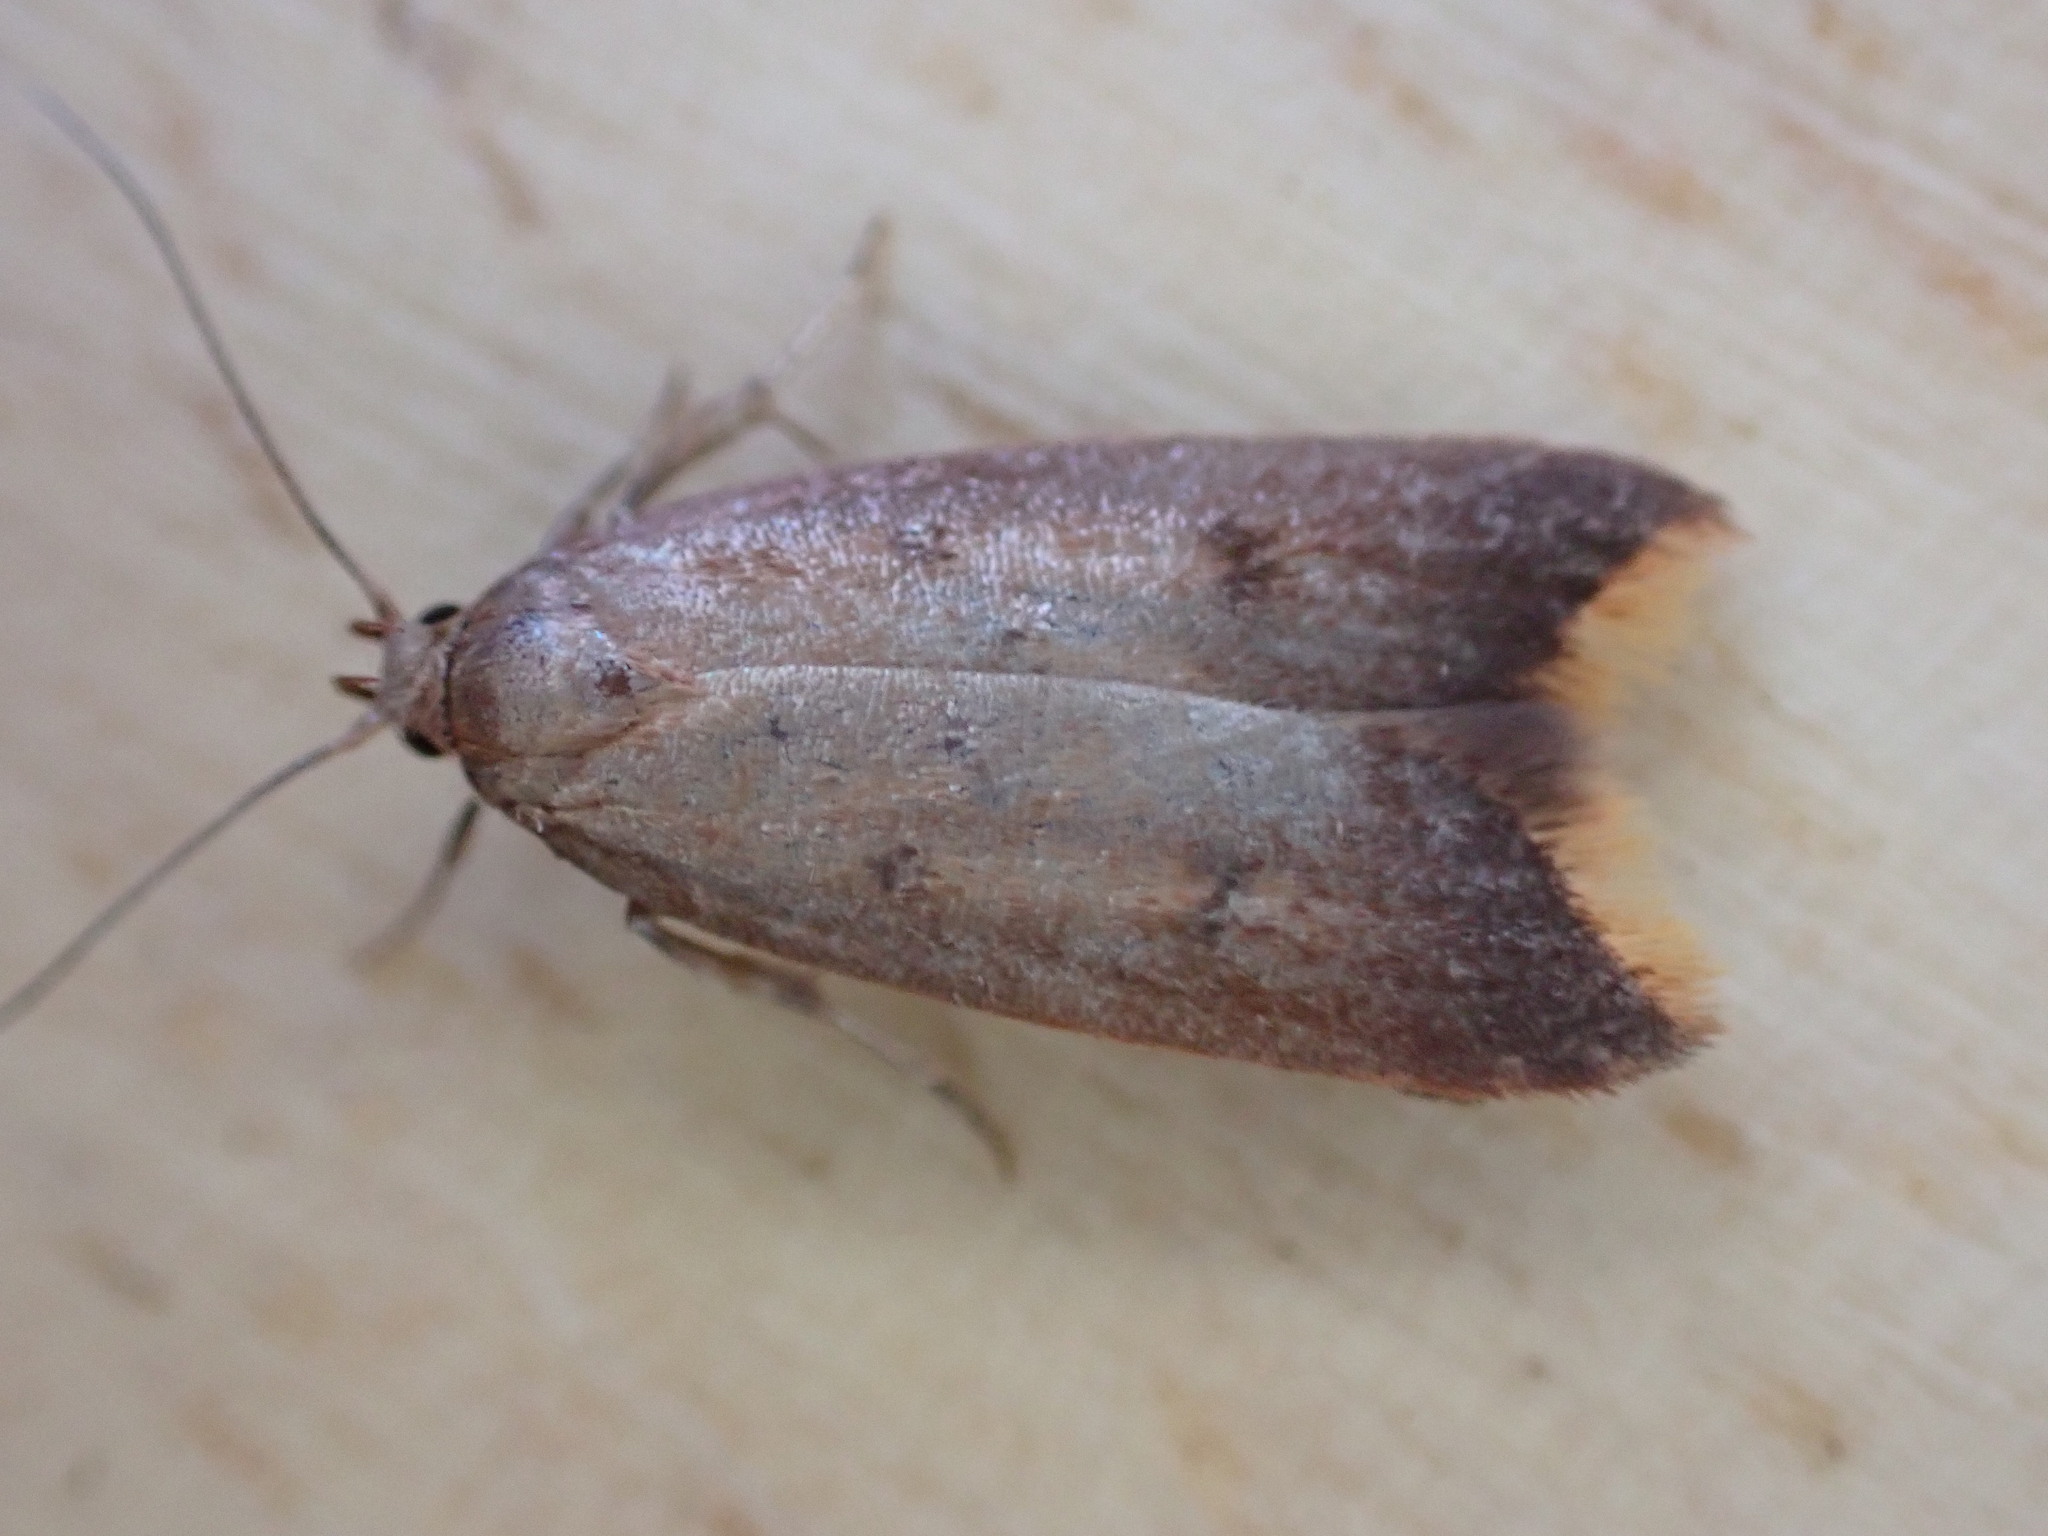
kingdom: Animalia
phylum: Arthropoda
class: Insecta
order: Lepidoptera
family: Oecophoridae
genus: Tachystola
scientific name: Tachystola acroxantha
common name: Ruddy streak
